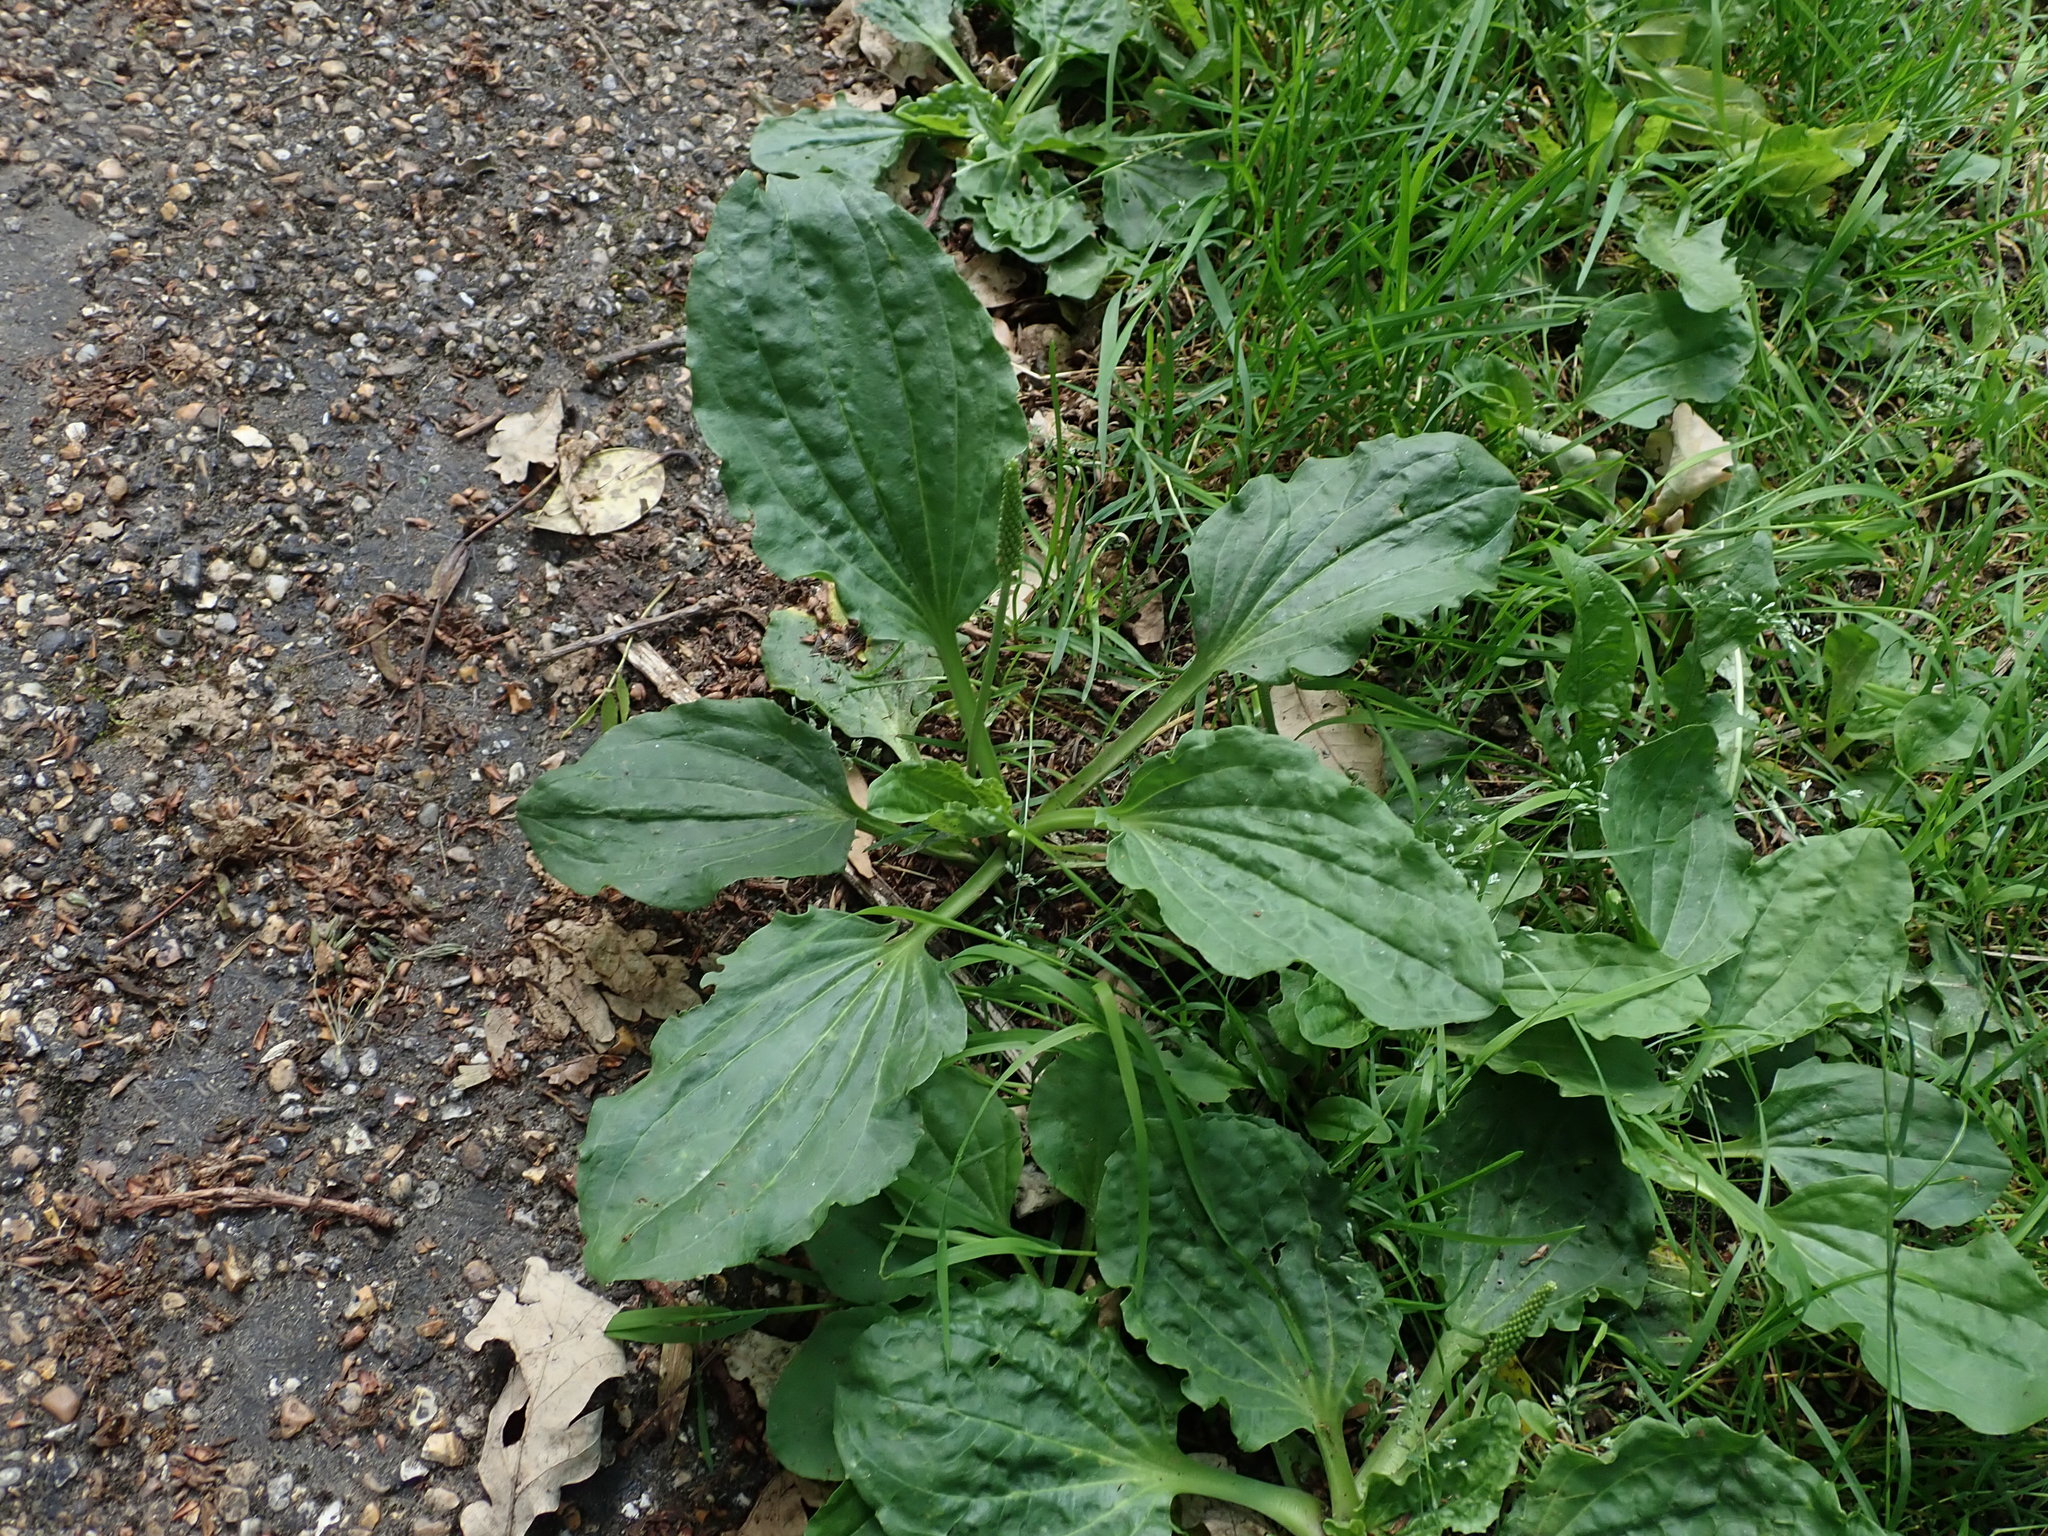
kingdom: Plantae
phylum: Tracheophyta
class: Magnoliopsida
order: Lamiales
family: Plantaginaceae
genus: Plantago
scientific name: Plantago major
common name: Common plantain
